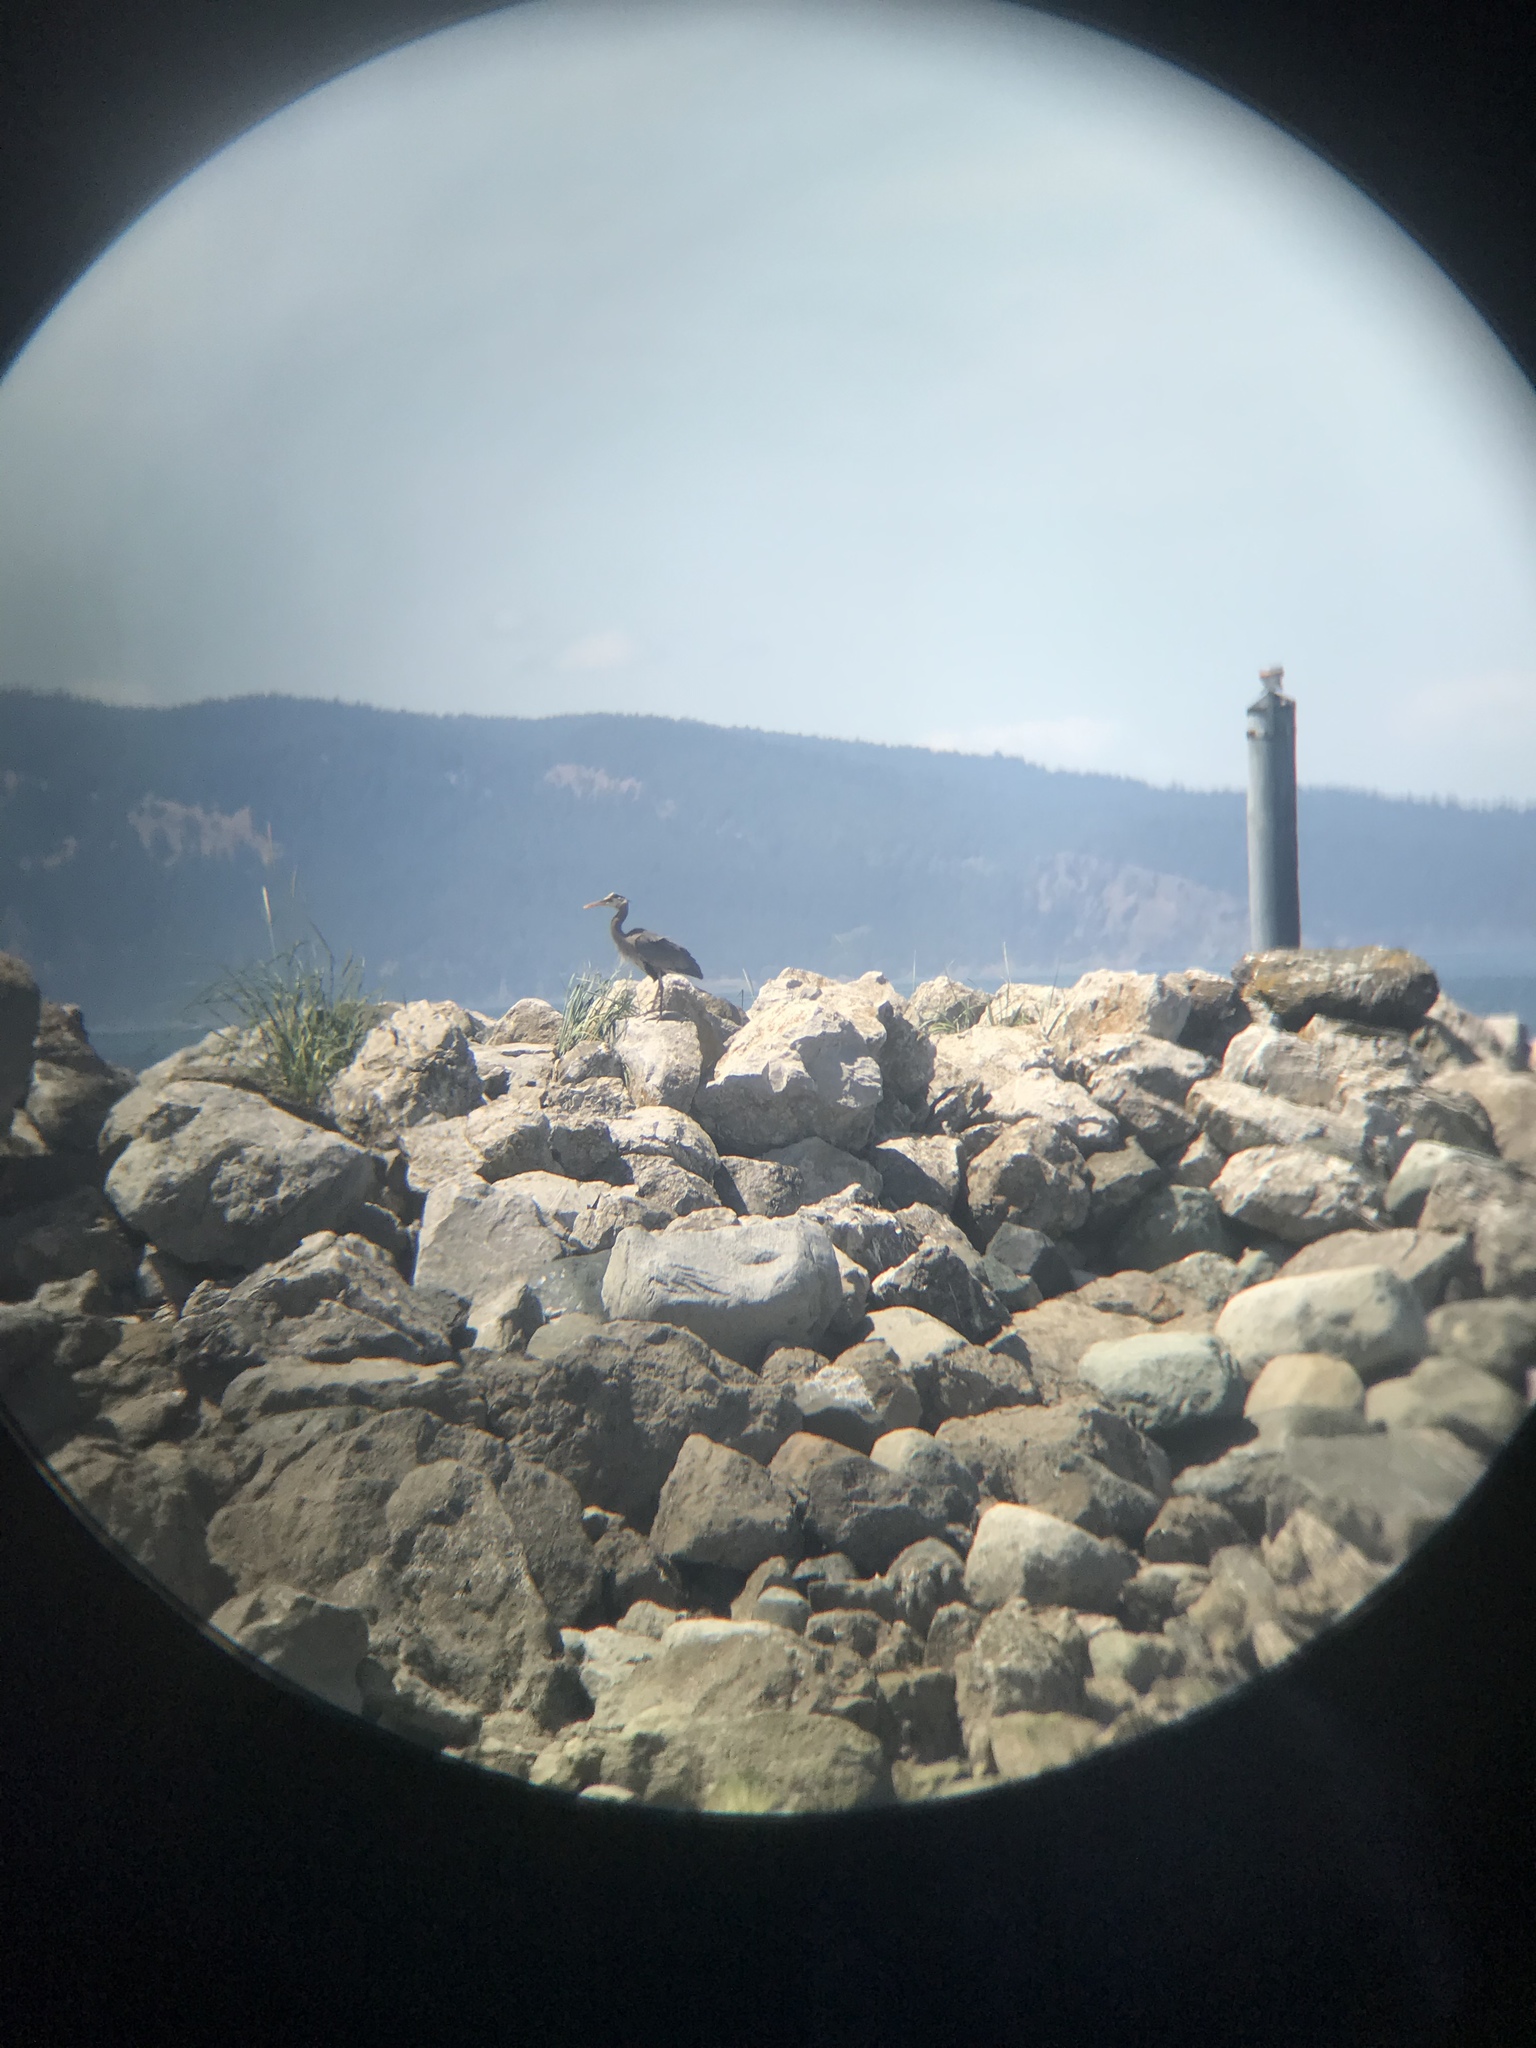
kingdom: Animalia
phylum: Chordata
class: Aves
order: Pelecaniformes
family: Ardeidae
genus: Ardea
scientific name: Ardea herodias
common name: Great blue heron
